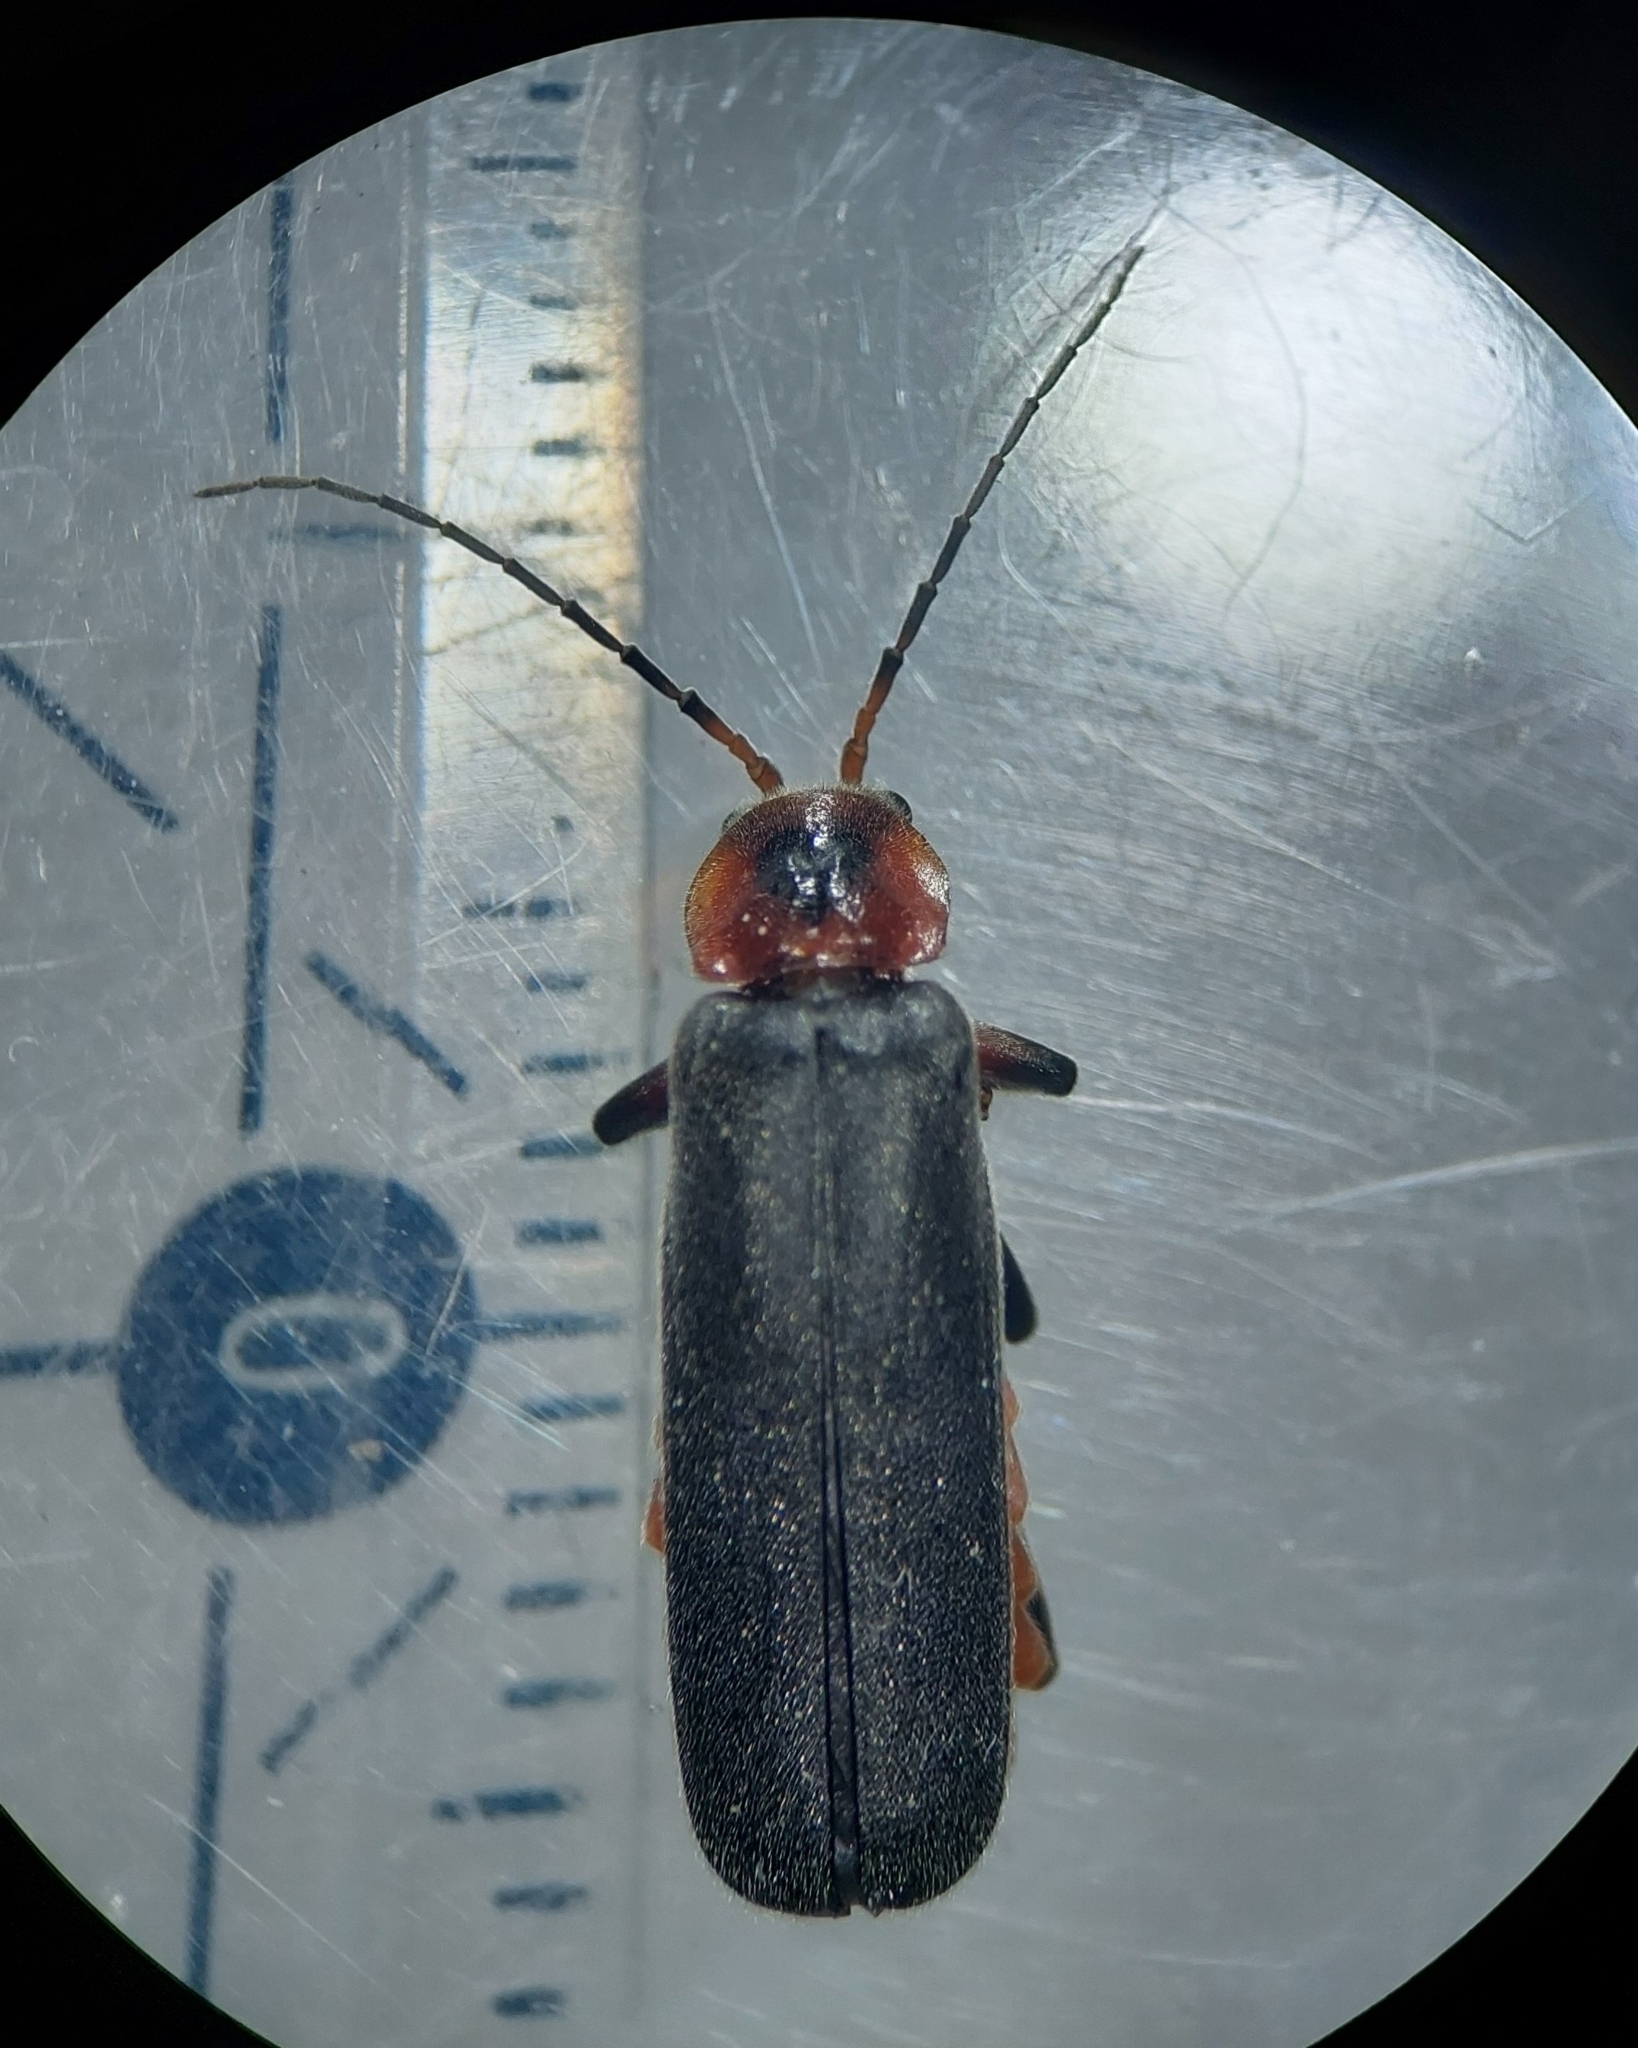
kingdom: Animalia
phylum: Arthropoda
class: Insecta
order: Coleoptera
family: Cantharidae
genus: Cantharis
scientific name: Cantharis rustica
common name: Soldier beetle
